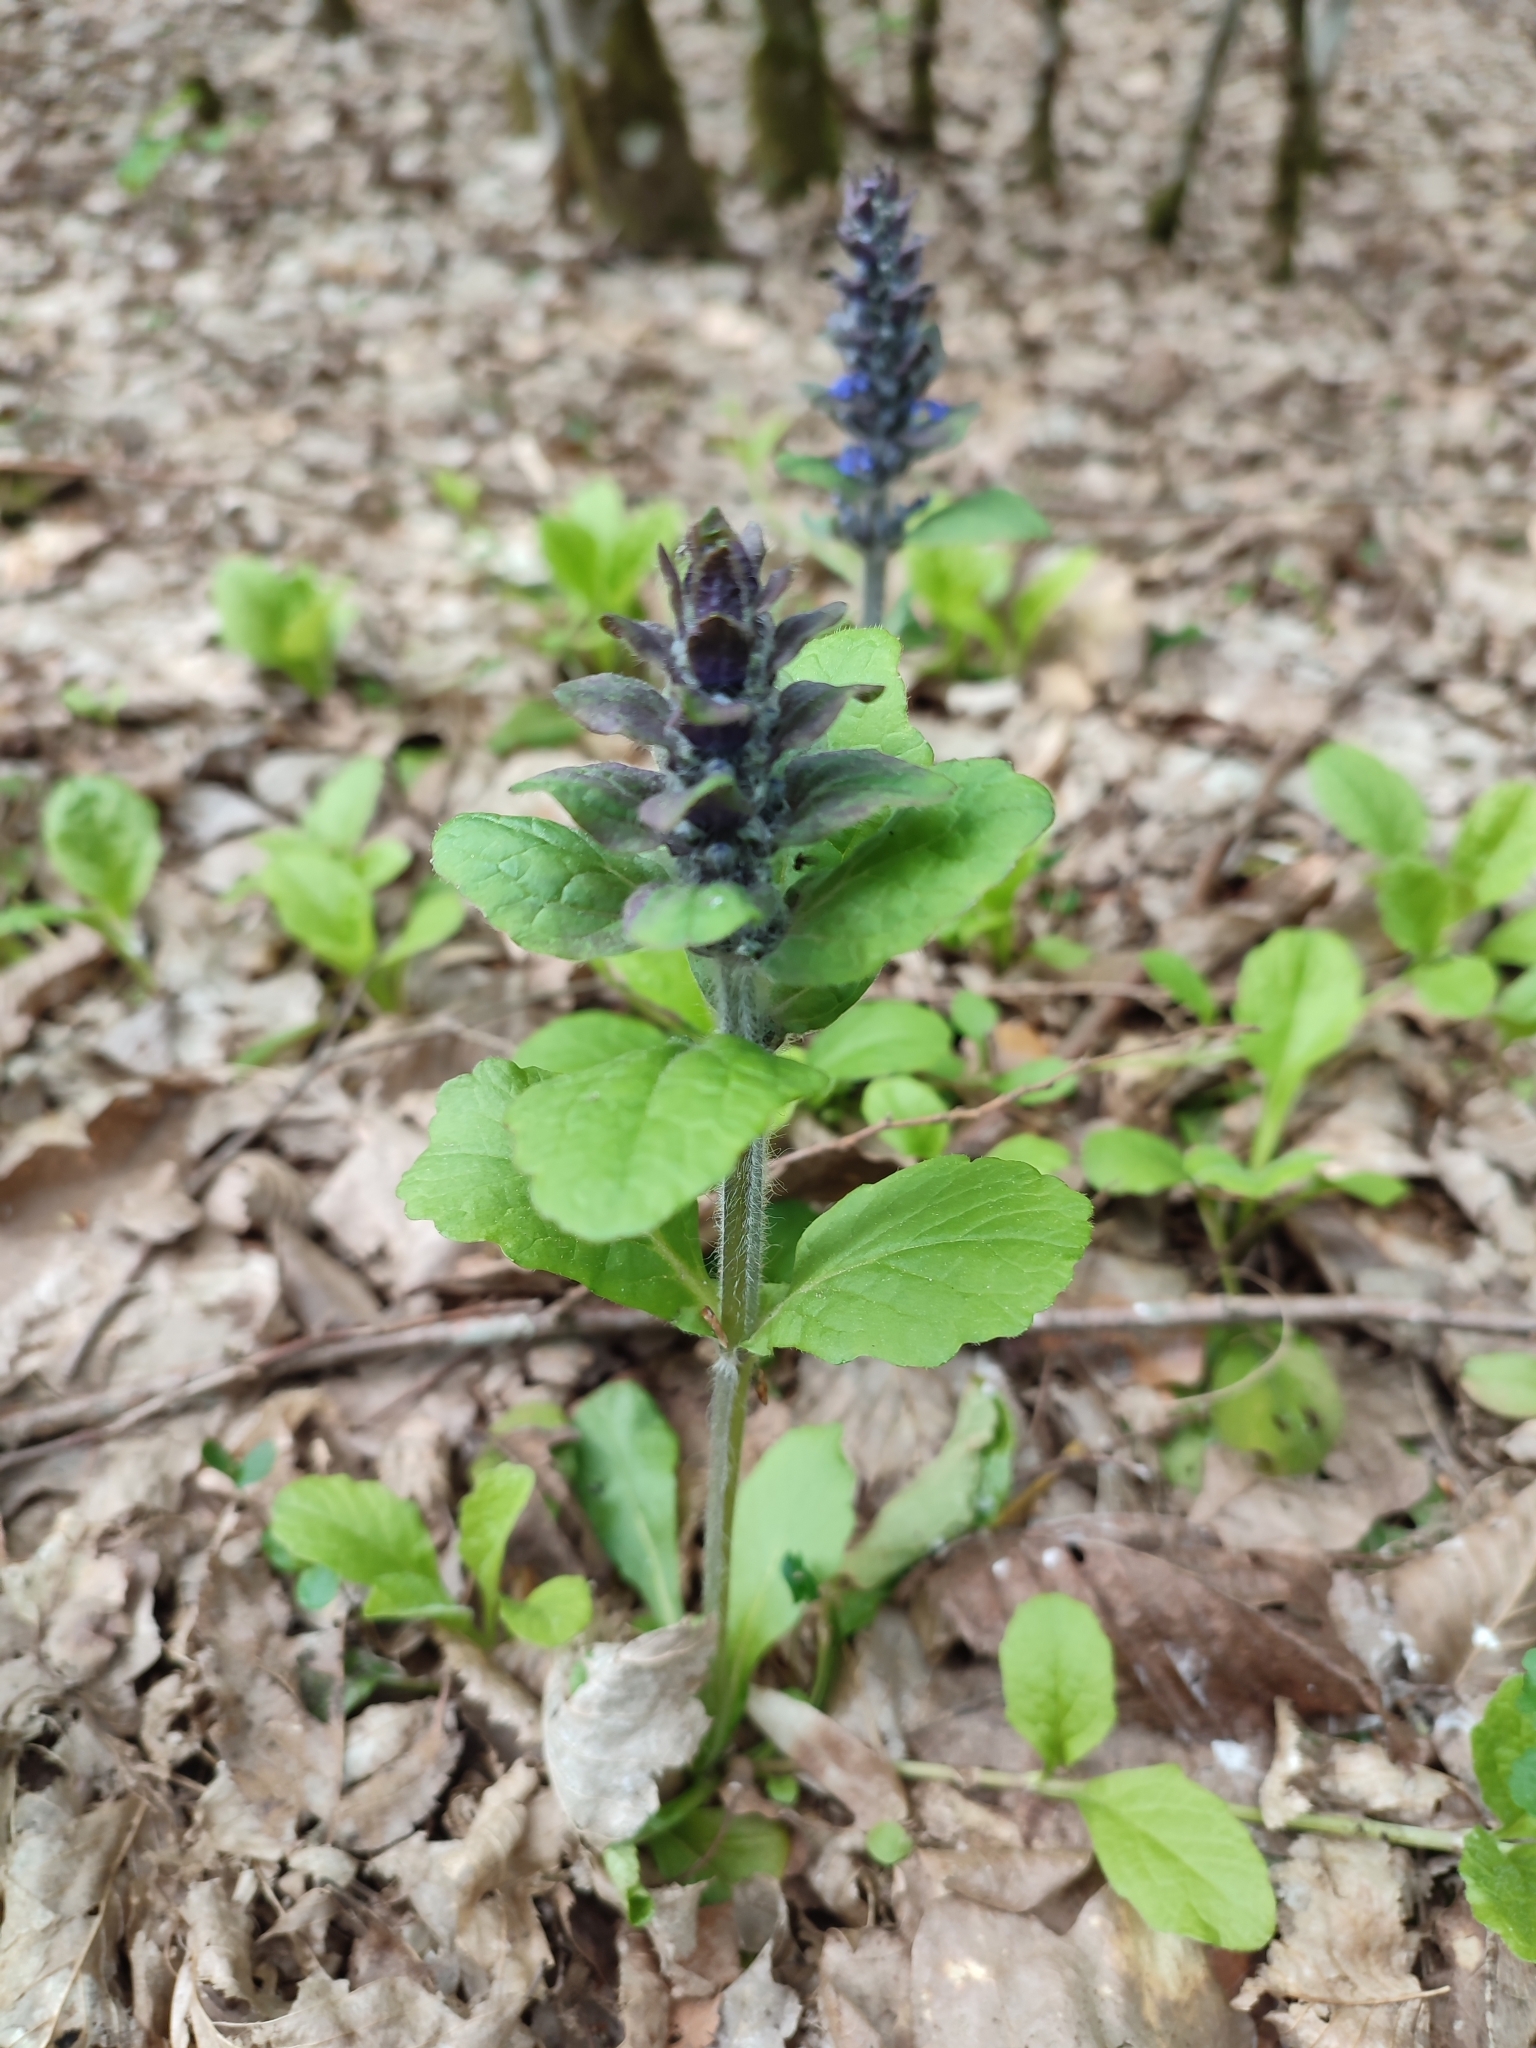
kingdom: Plantae
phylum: Tracheophyta
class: Magnoliopsida
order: Lamiales
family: Lamiaceae
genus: Ajuga
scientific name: Ajuga reptans
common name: Bugle
